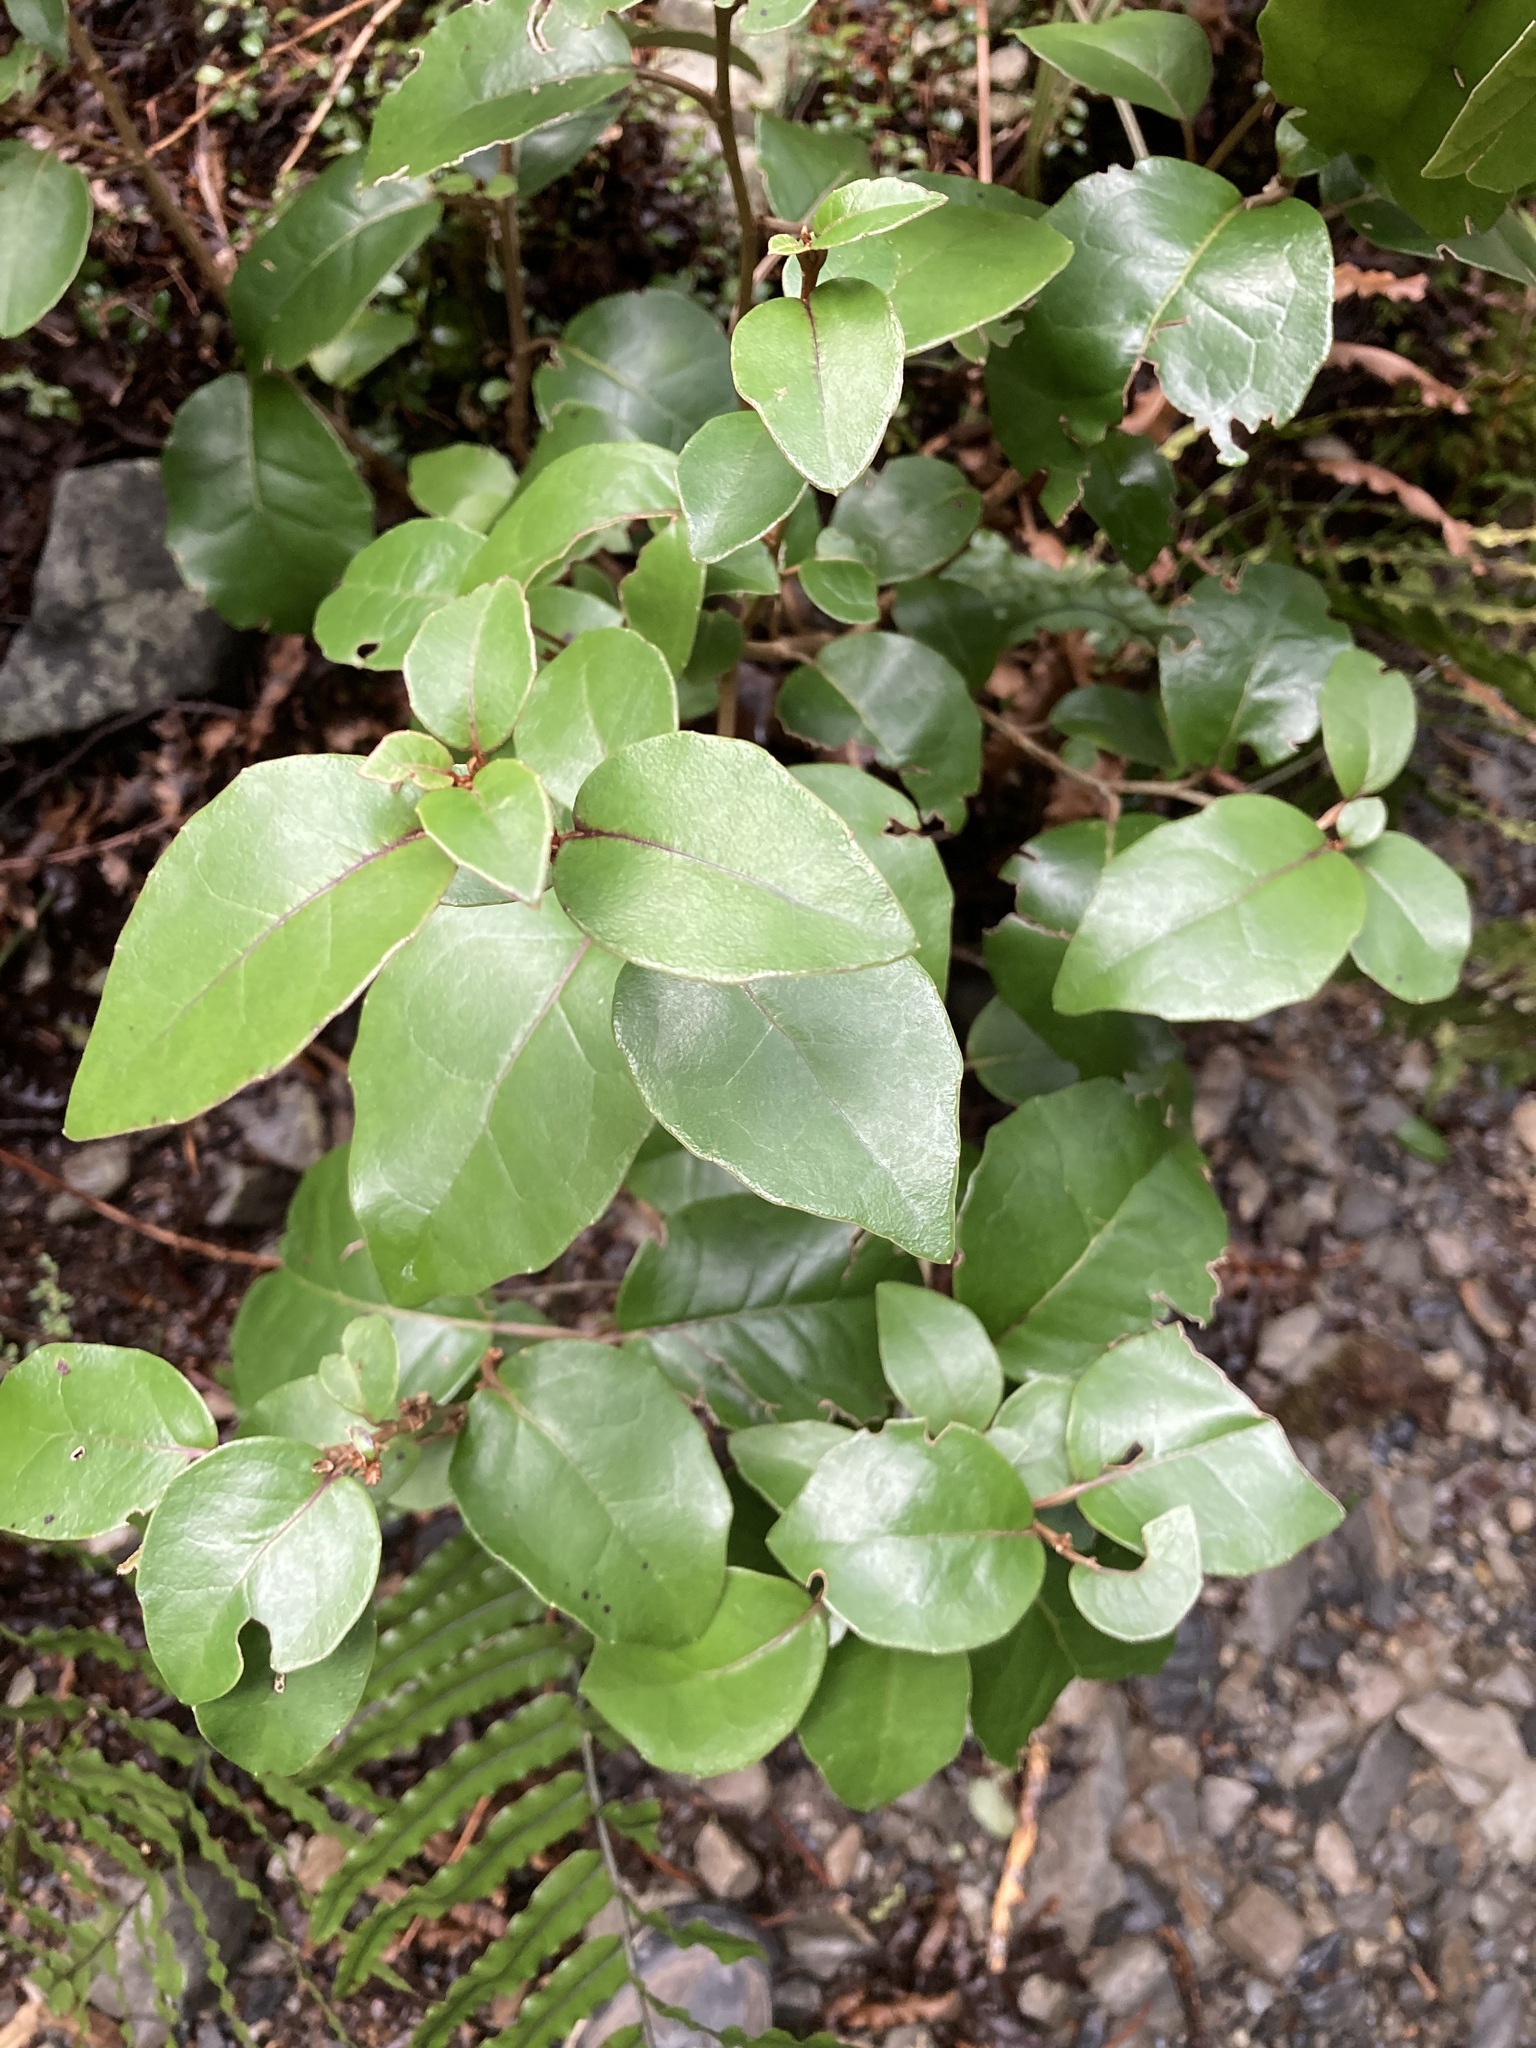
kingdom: Plantae
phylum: Tracheophyta
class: Magnoliopsida
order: Asterales
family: Asteraceae
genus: Olearia
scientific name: Olearia arborescens
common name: Glossy tree daisy
